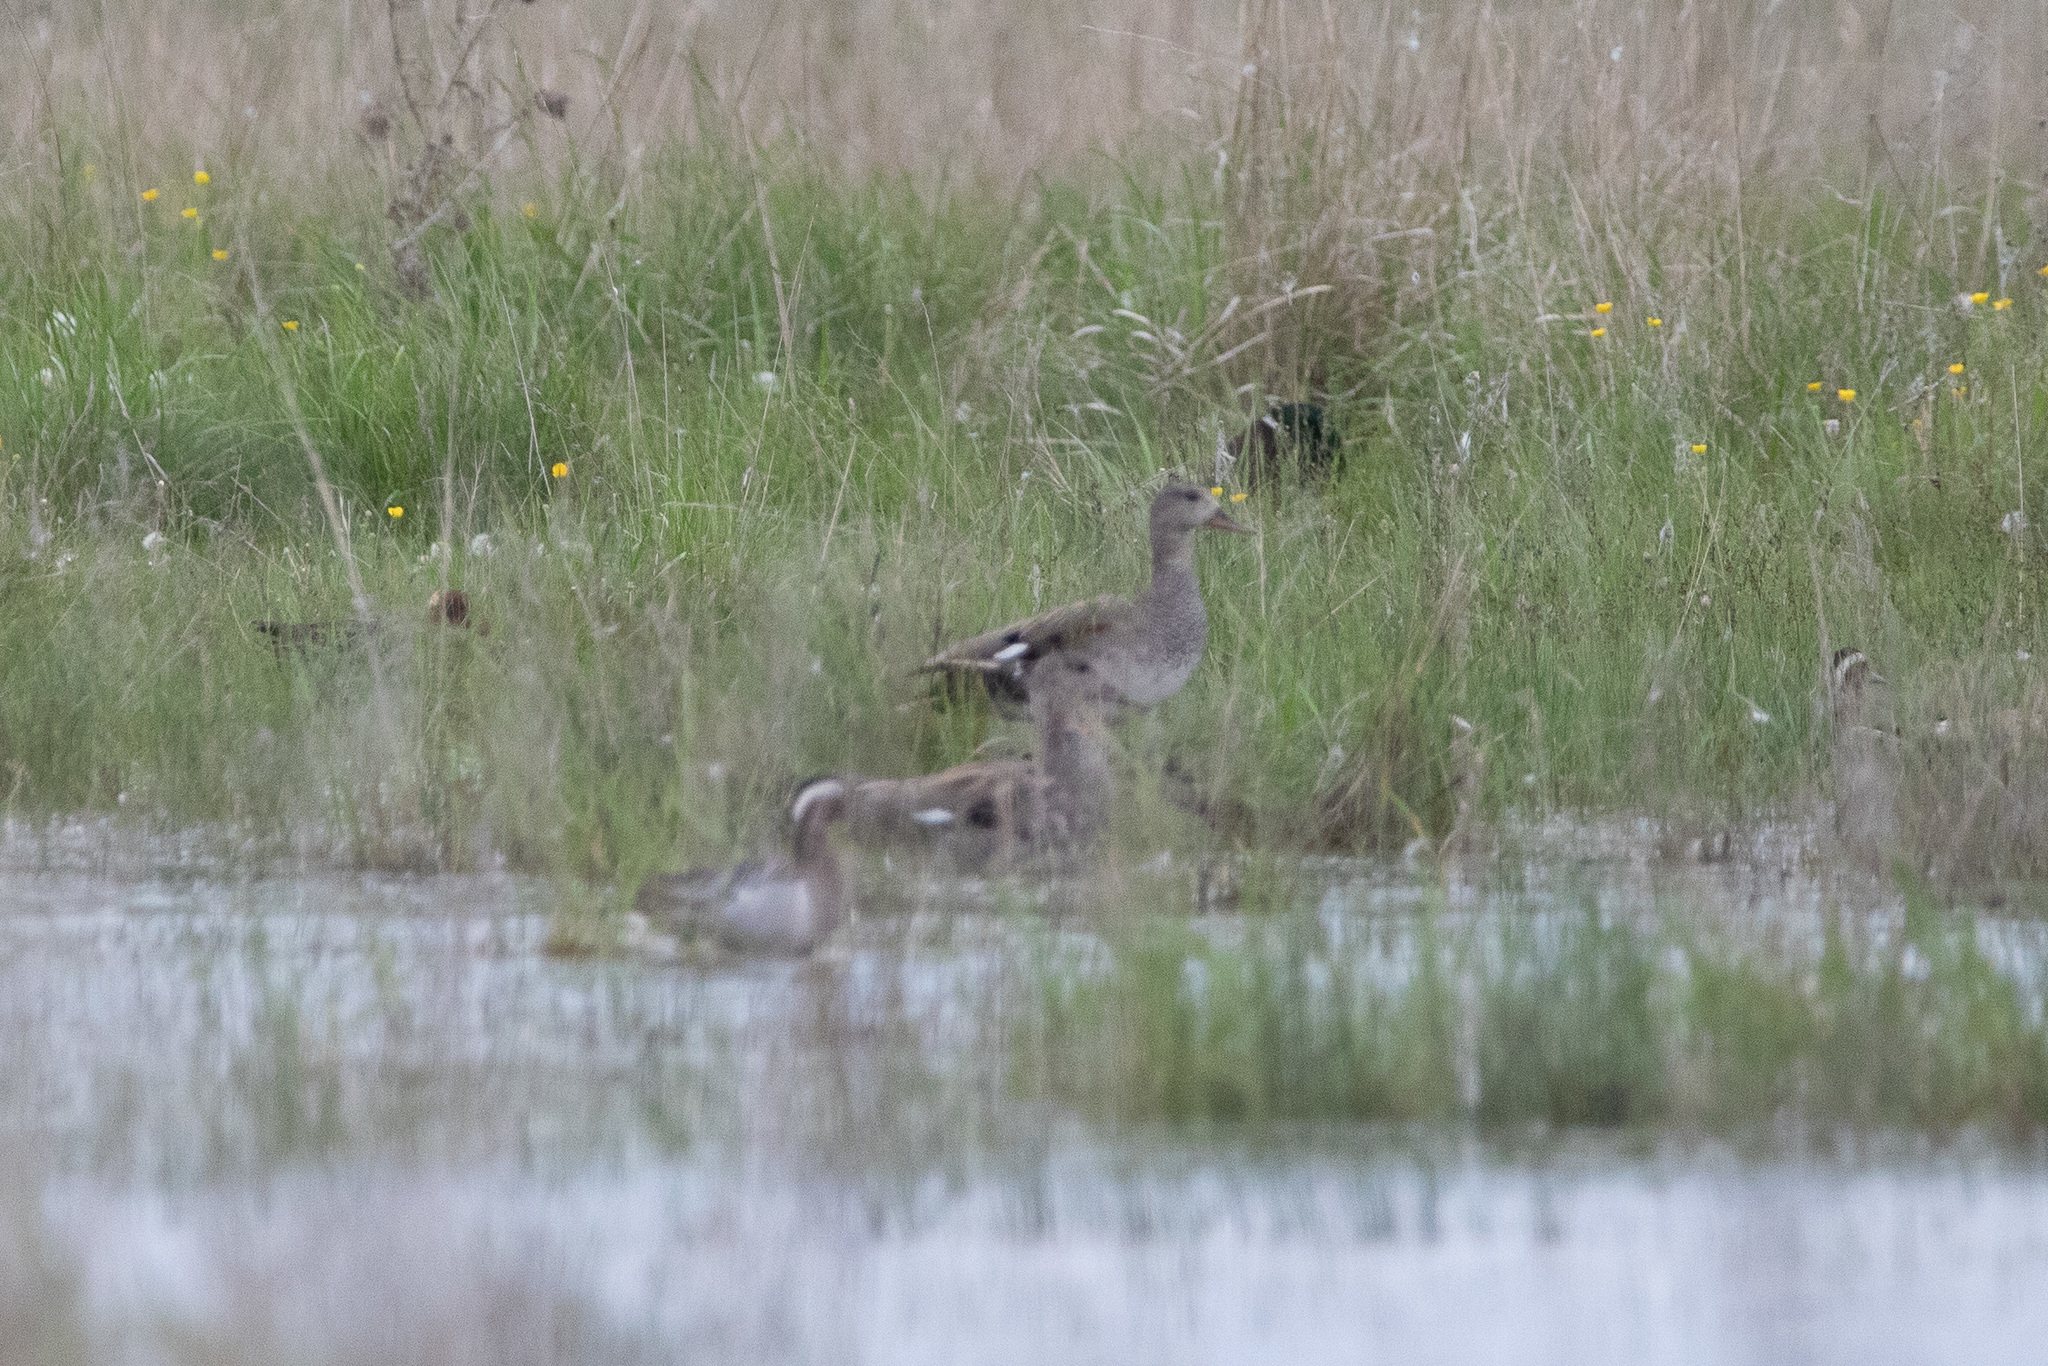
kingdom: Animalia
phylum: Chordata
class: Aves
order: Anseriformes
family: Anatidae
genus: Mareca
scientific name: Mareca strepera
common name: Gadwall
